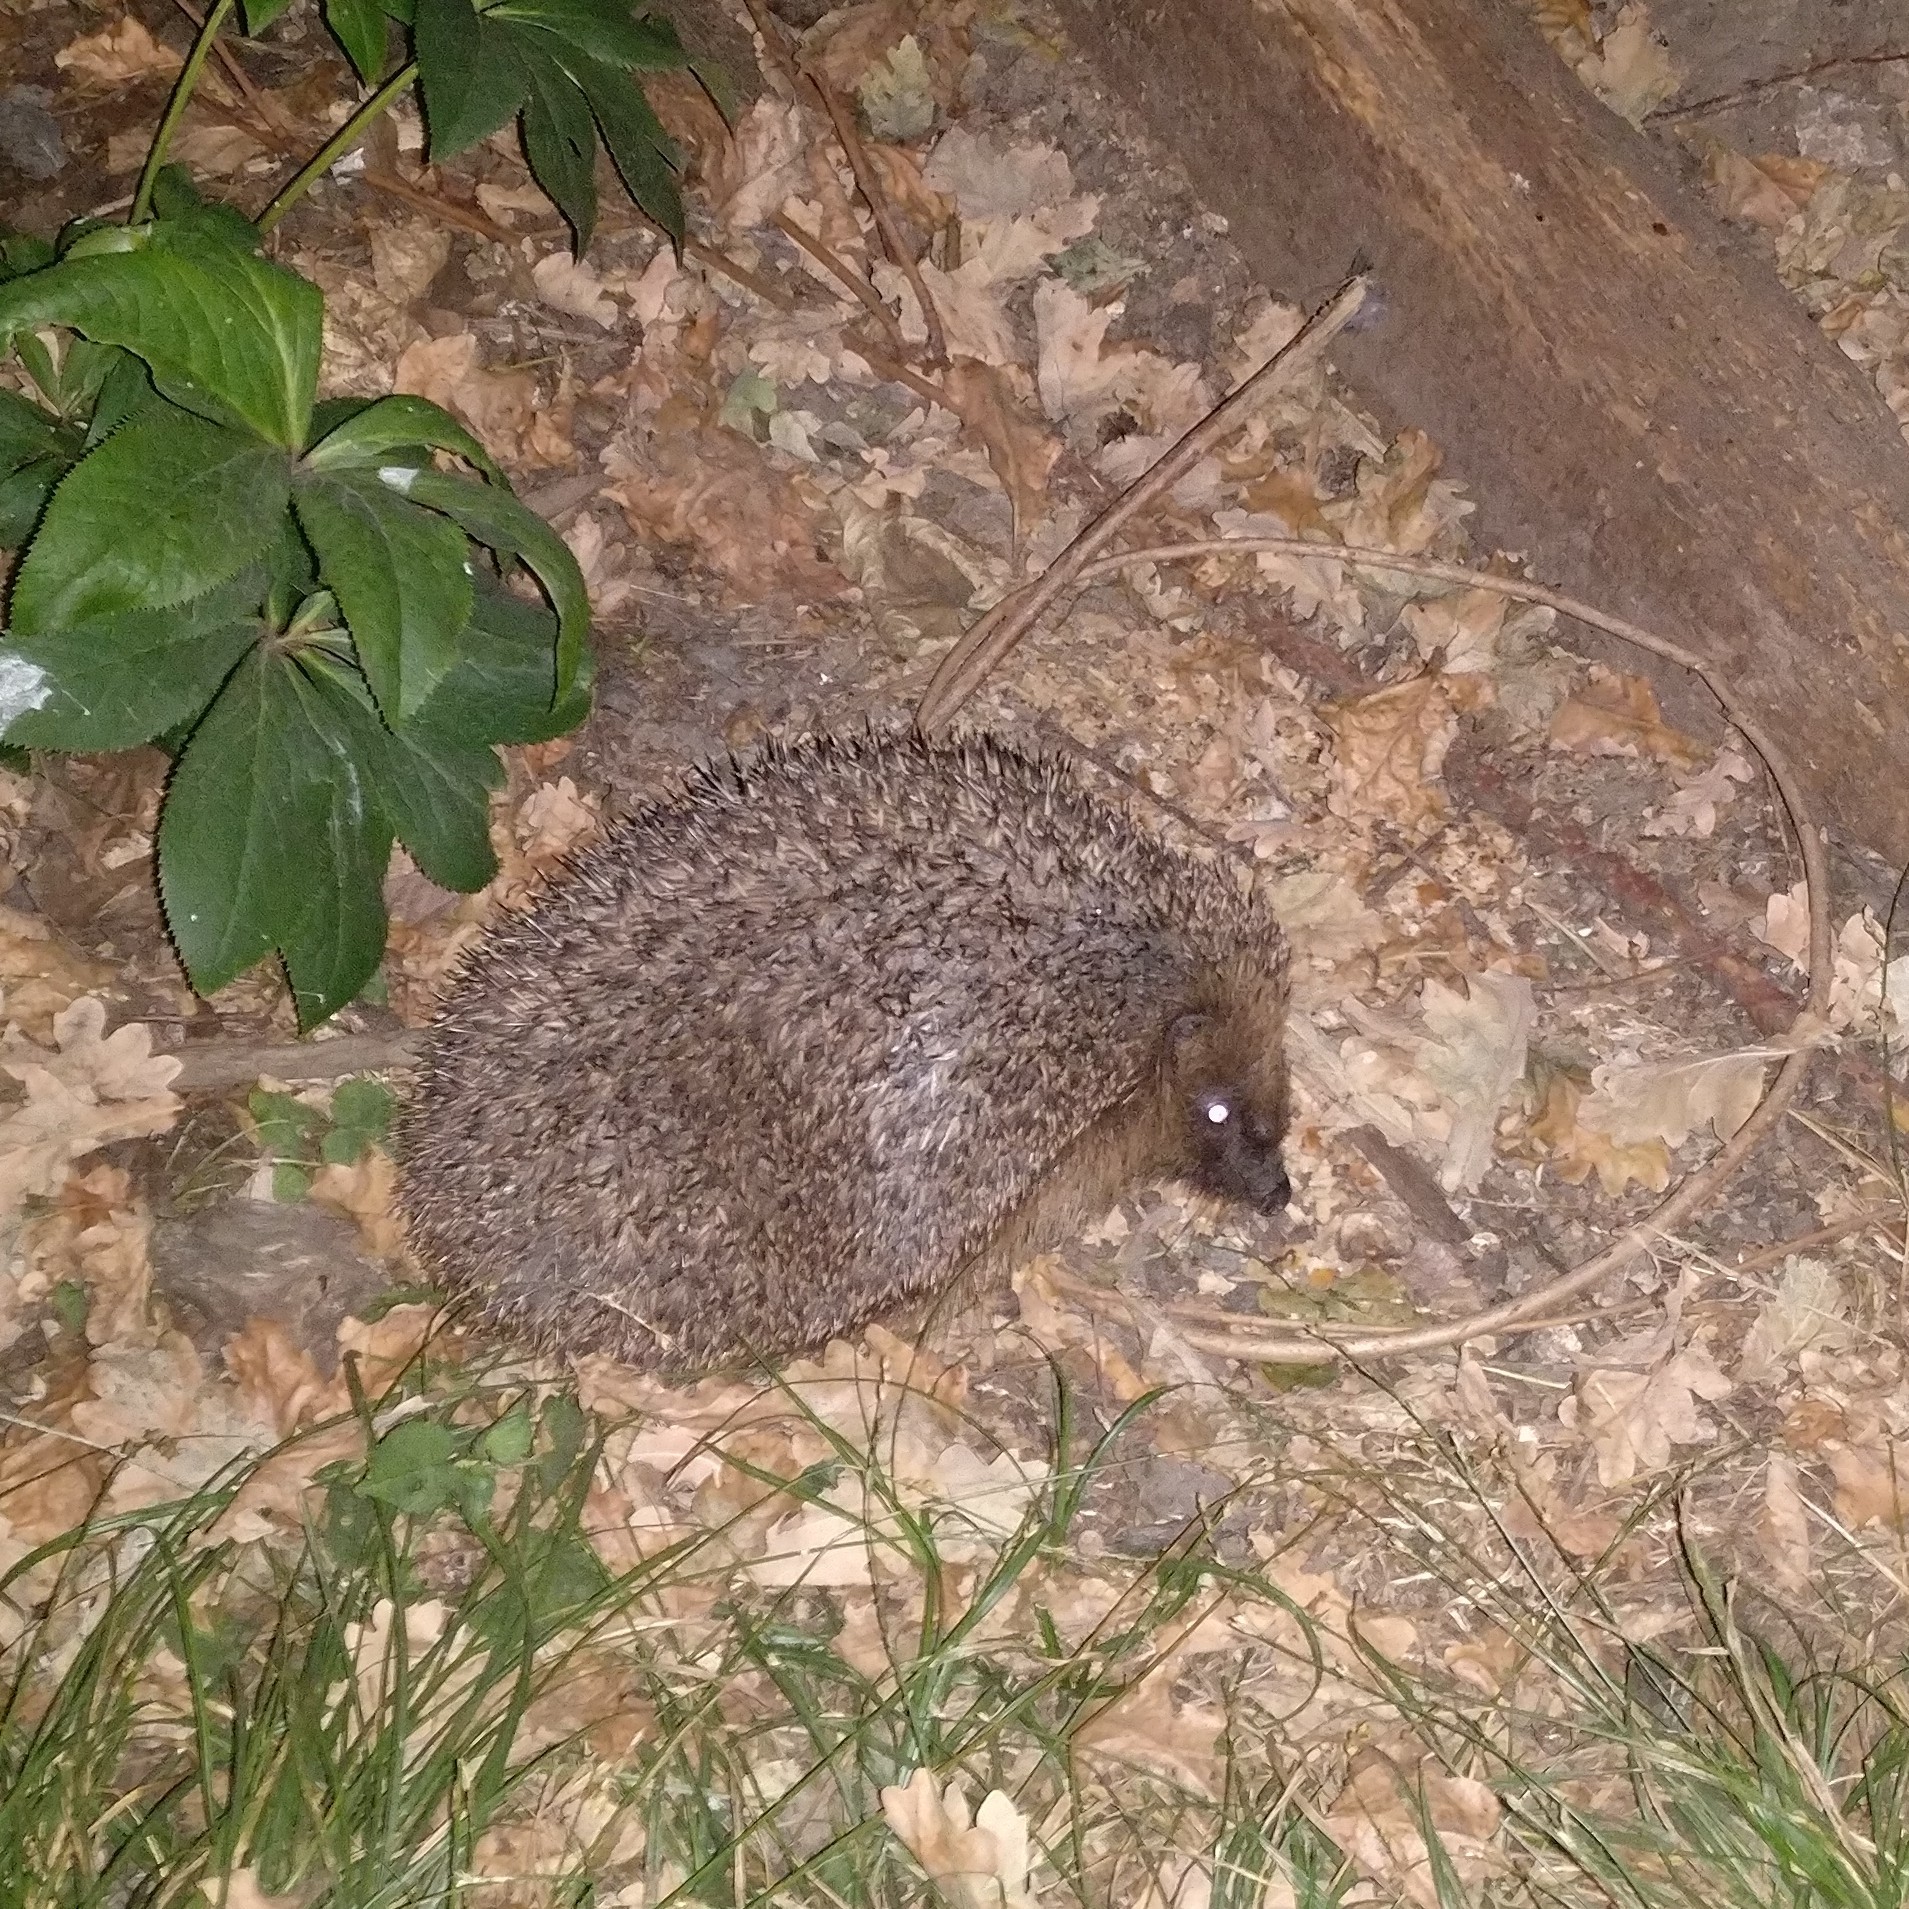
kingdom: Animalia
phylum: Chordata
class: Mammalia
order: Erinaceomorpha
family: Erinaceidae
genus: Erinaceus
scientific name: Erinaceus europaeus
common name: West european hedgehog
